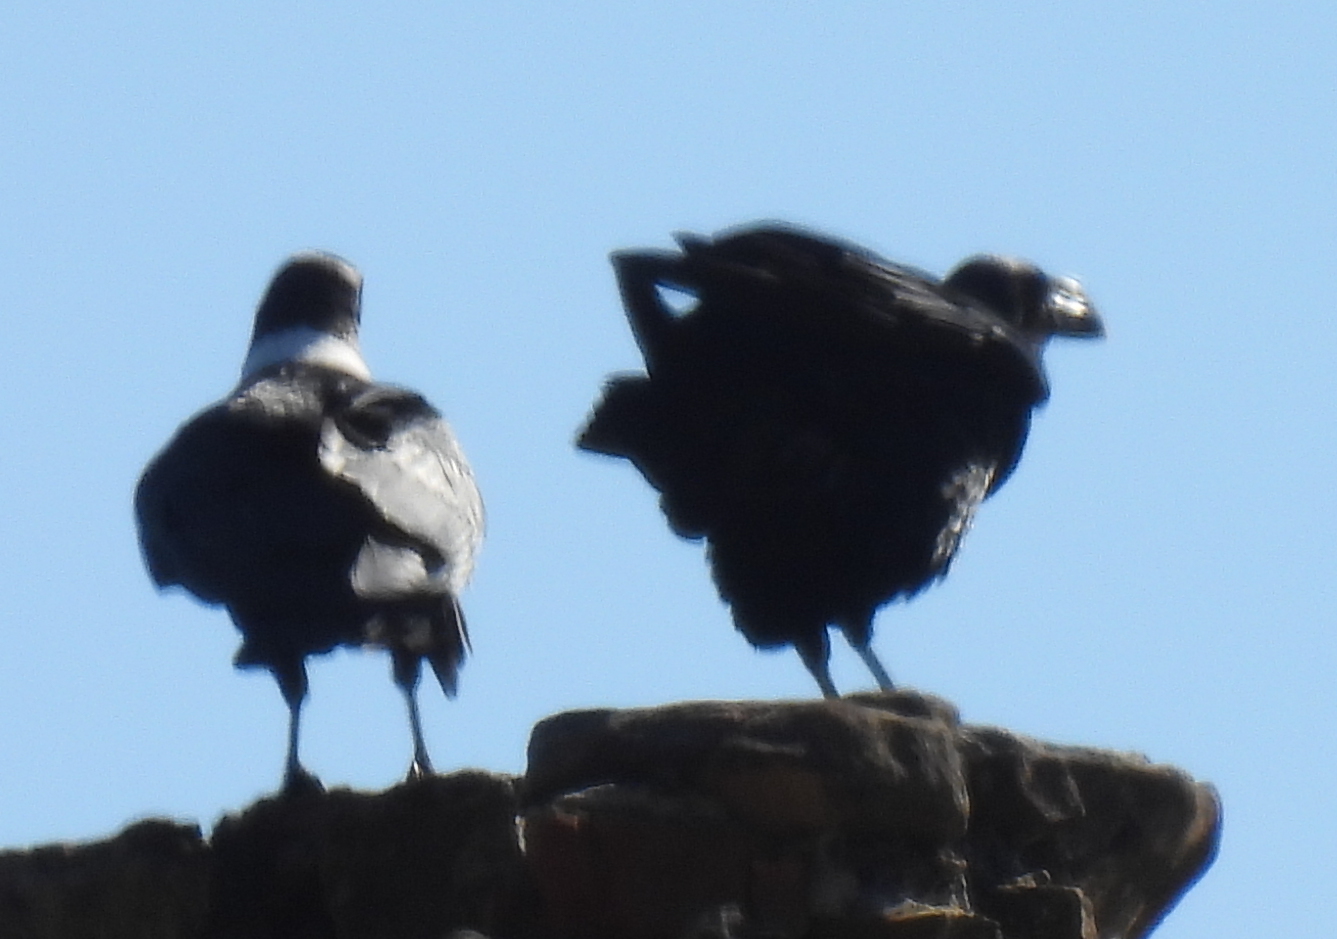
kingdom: Animalia
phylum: Chordata
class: Aves
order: Passeriformes
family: Corvidae
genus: Corvus
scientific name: Corvus albicollis
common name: White-necked raven
